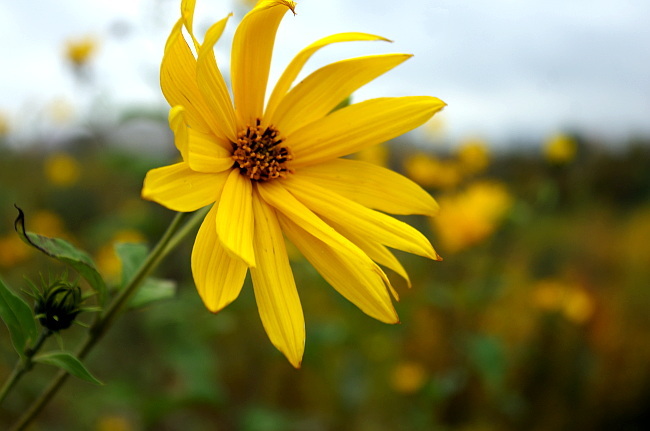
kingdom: Plantae
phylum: Tracheophyta
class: Magnoliopsida
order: Asterales
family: Asteraceae
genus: Helianthus
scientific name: Helianthus tuberosus
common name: Jerusalem artichoke
